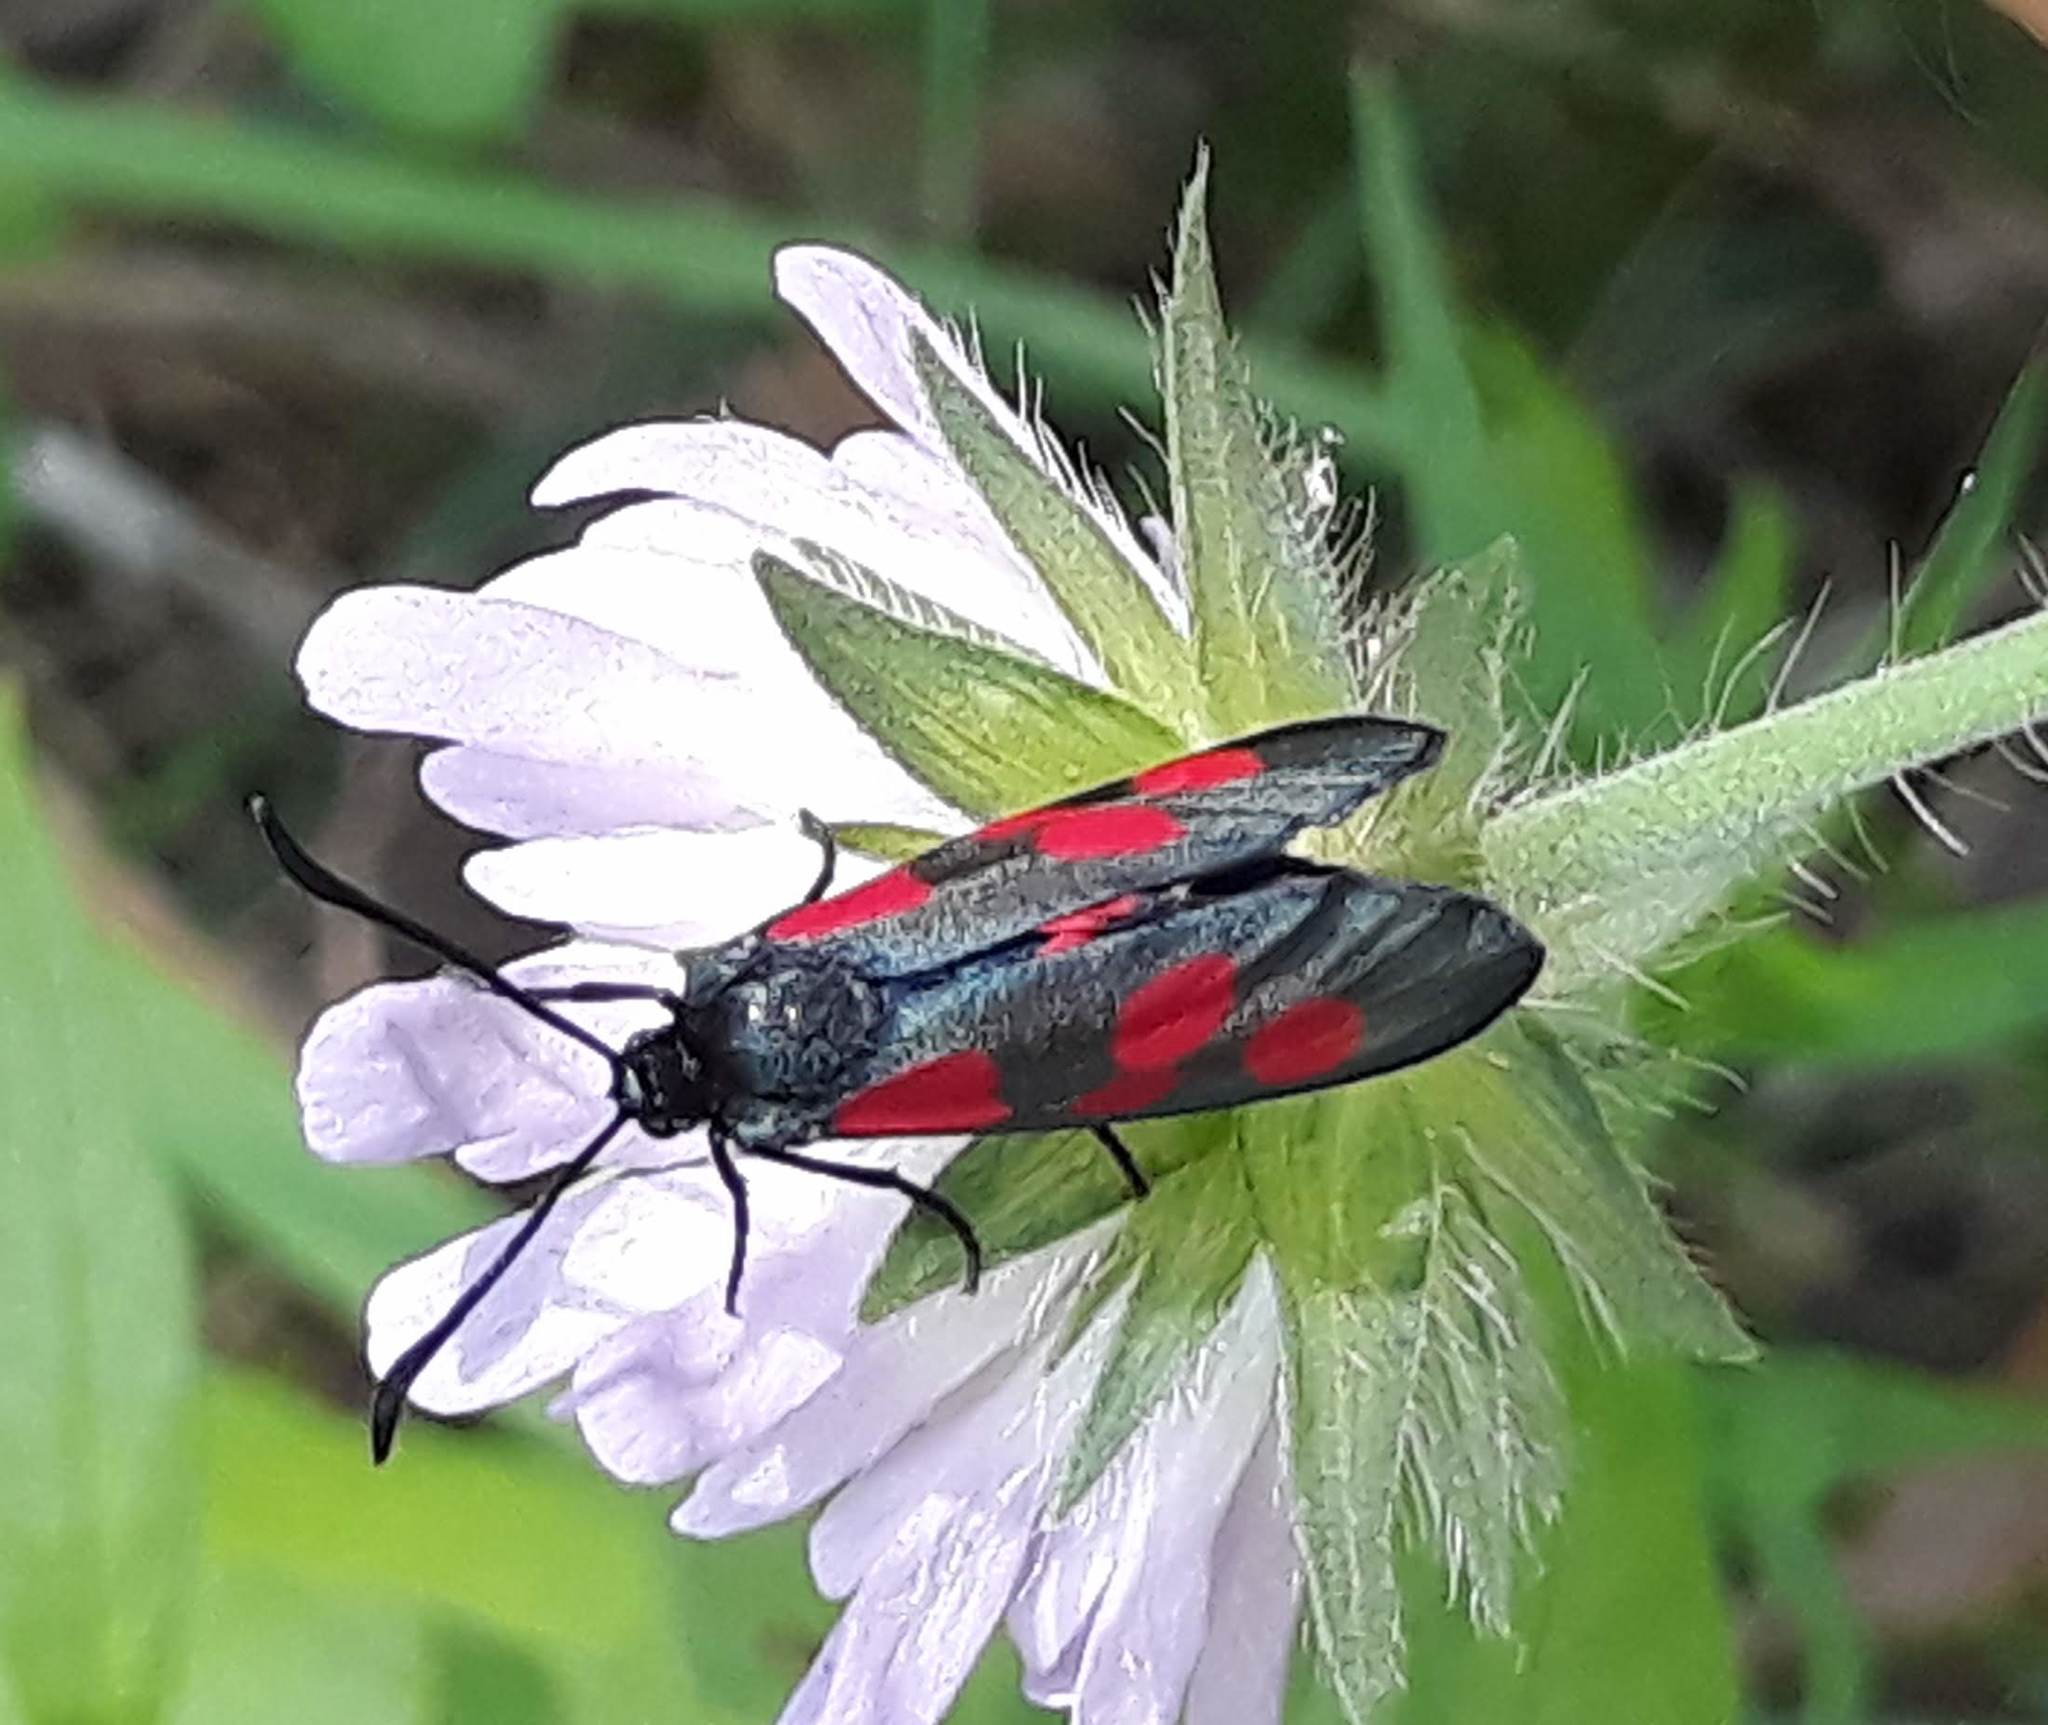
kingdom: Animalia
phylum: Arthropoda
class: Insecta
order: Lepidoptera
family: Zygaenidae
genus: Zygaena
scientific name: Zygaena trifolii
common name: Five-spot burnet
